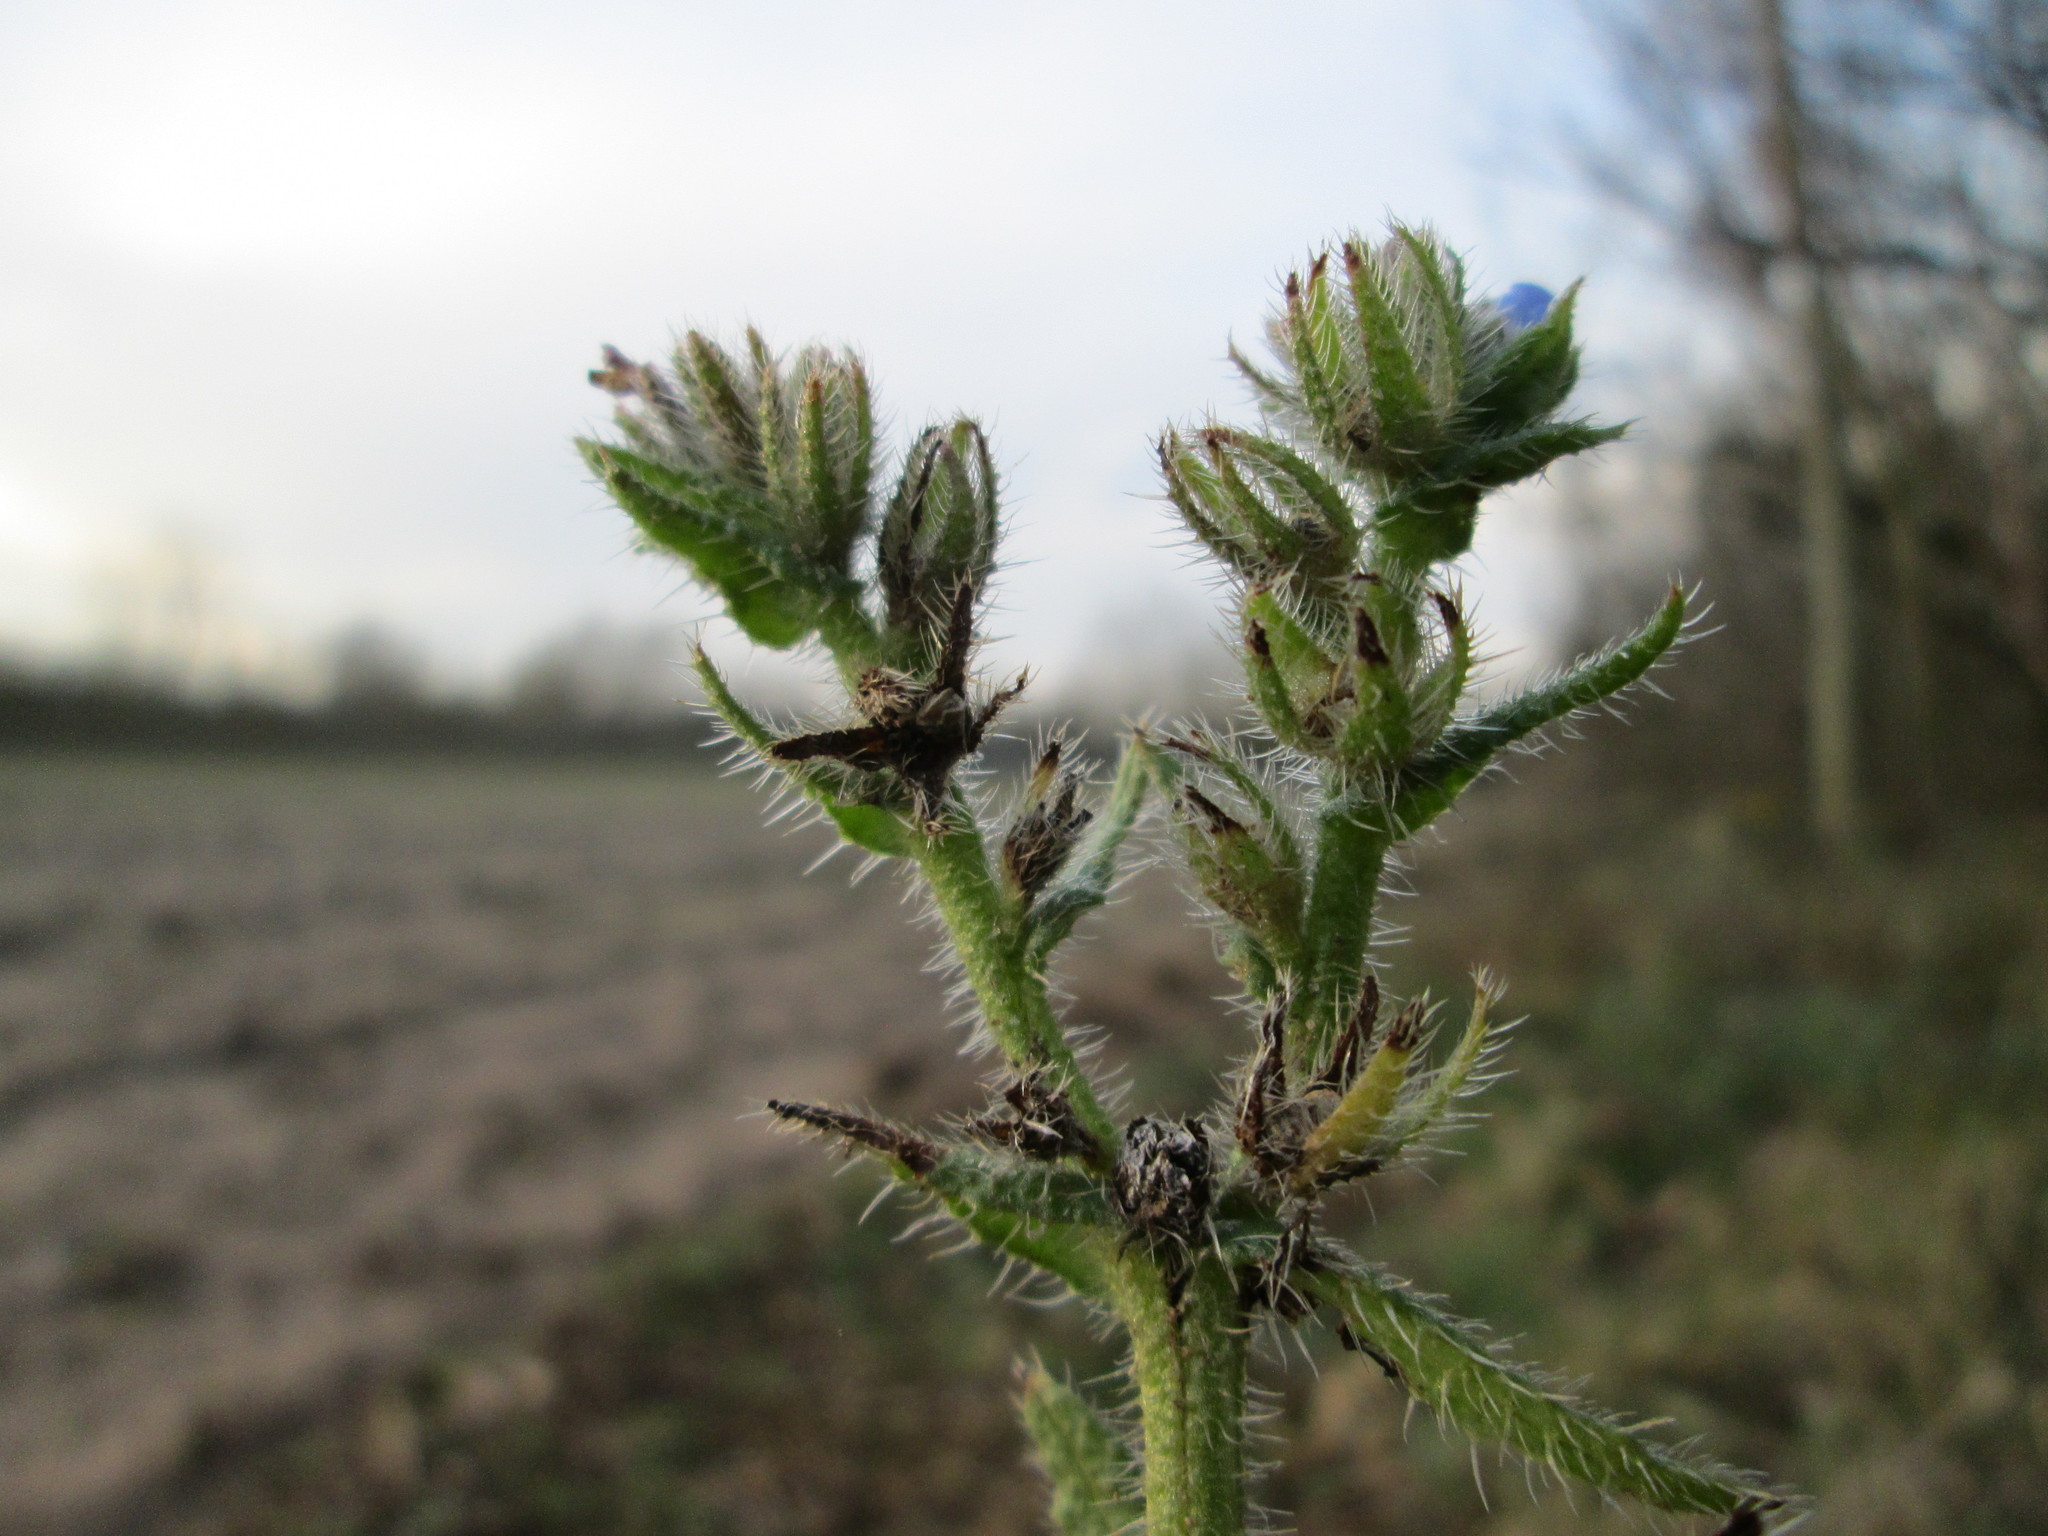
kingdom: Plantae
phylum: Tracheophyta
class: Magnoliopsida
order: Boraginales
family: Boraginaceae
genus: Lycopsis
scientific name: Lycopsis arvensis
